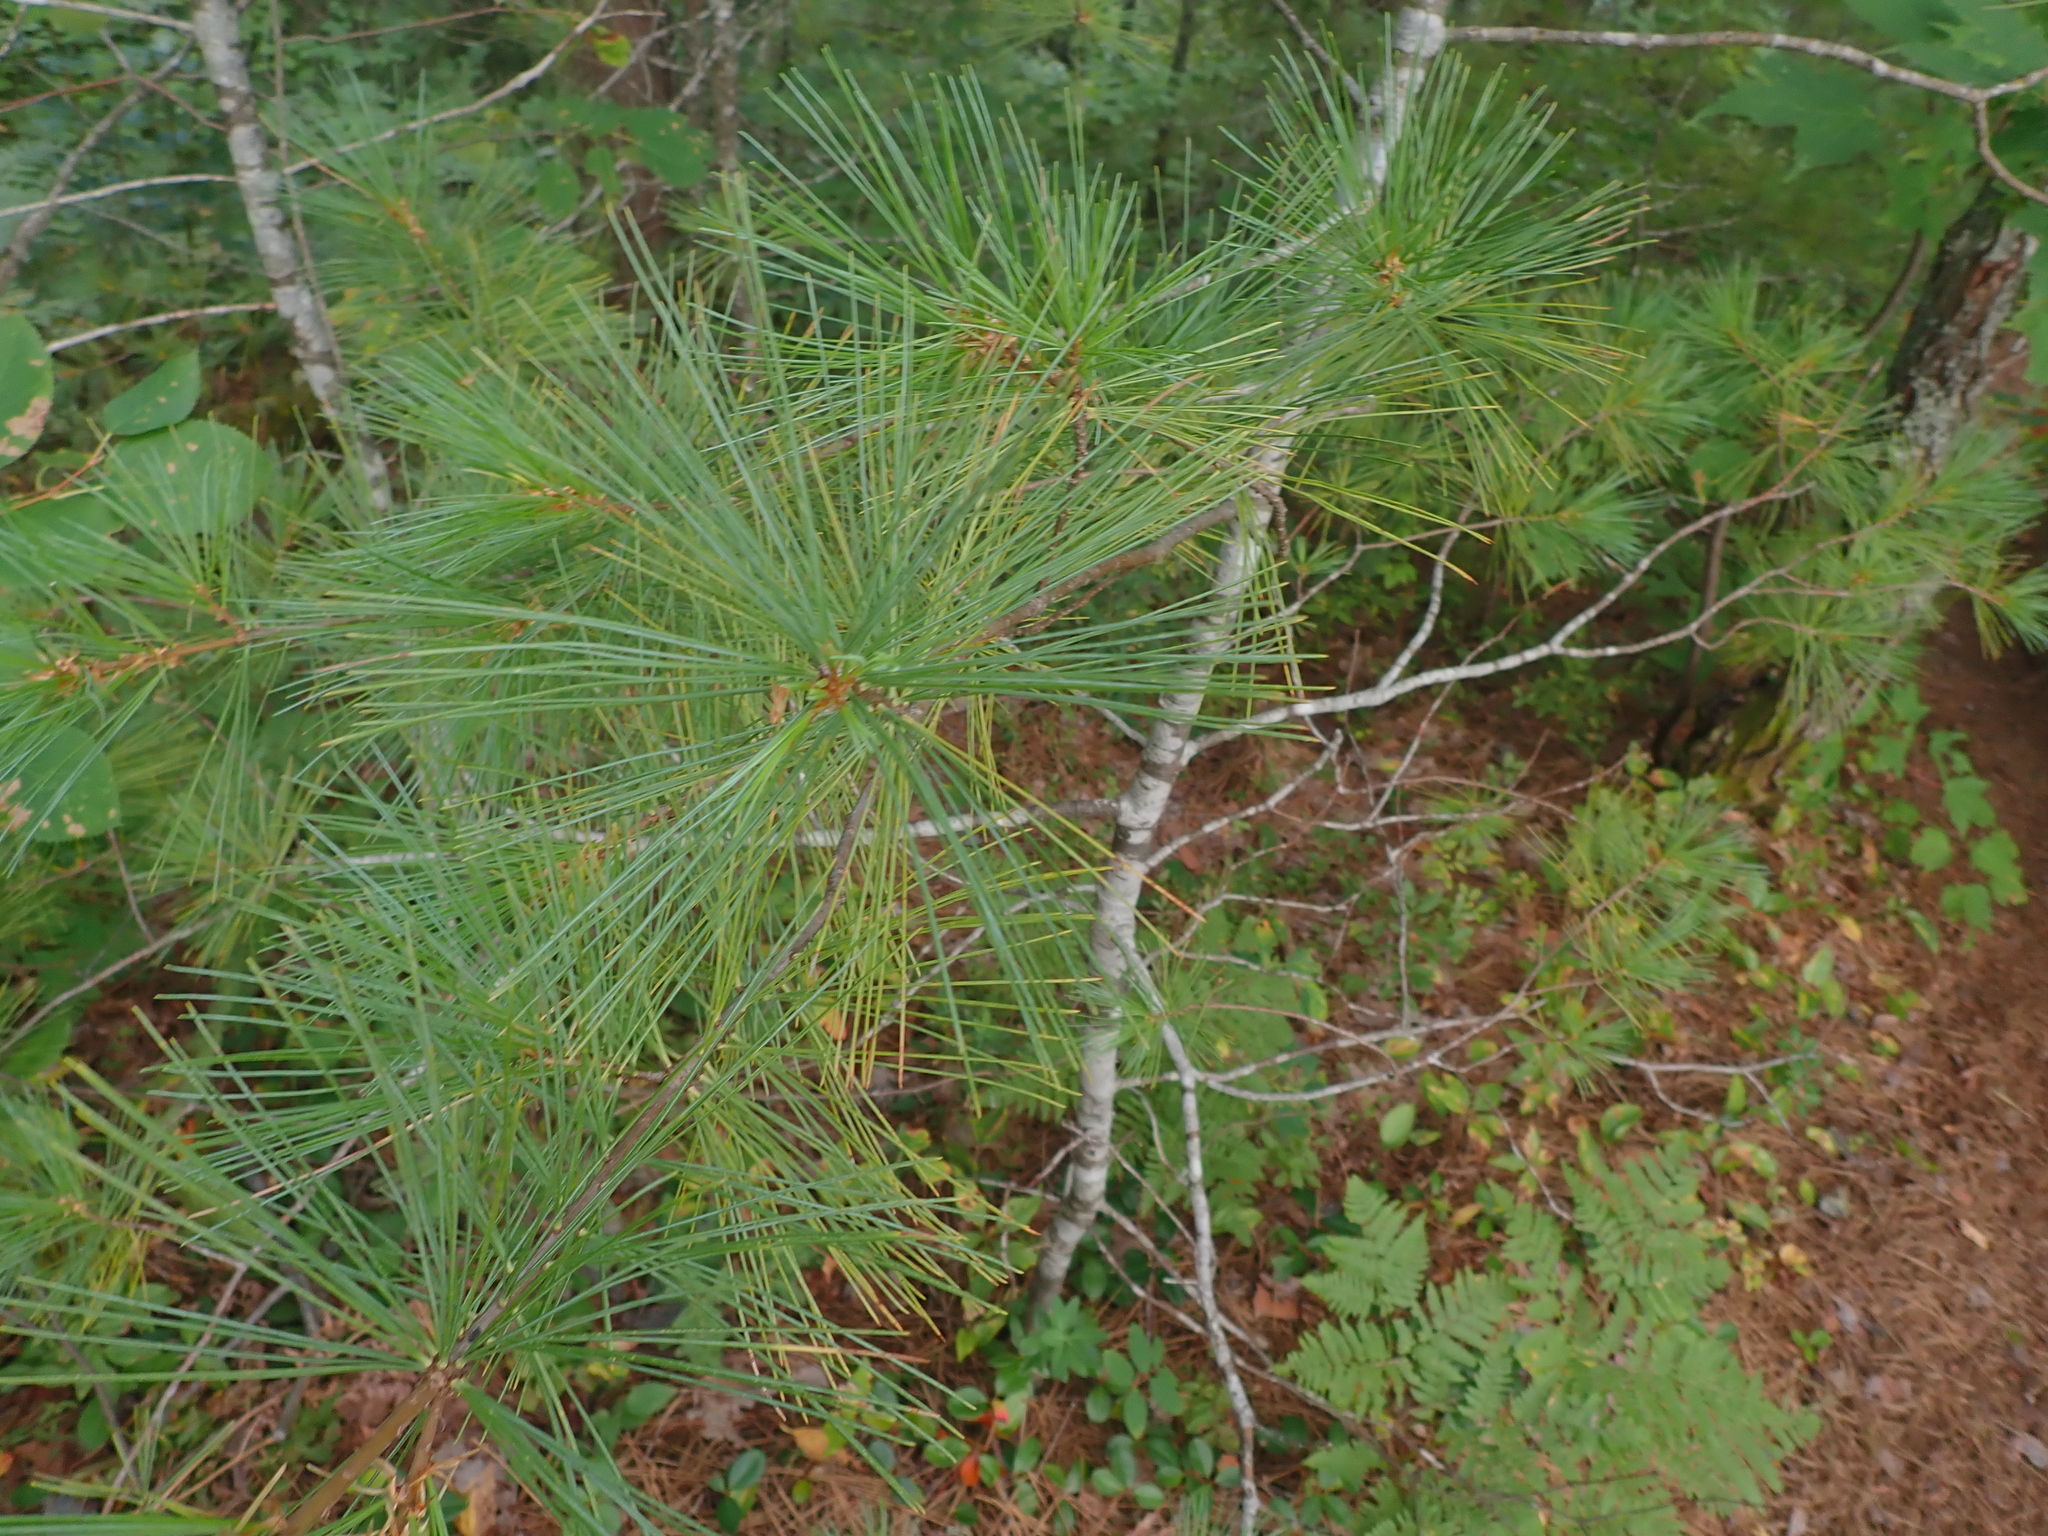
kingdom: Plantae
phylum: Tracheophyta
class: Pinopsida
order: Pinales
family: Pinaceae
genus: Pinus
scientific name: Pinus strobus
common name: Weymouth pine
